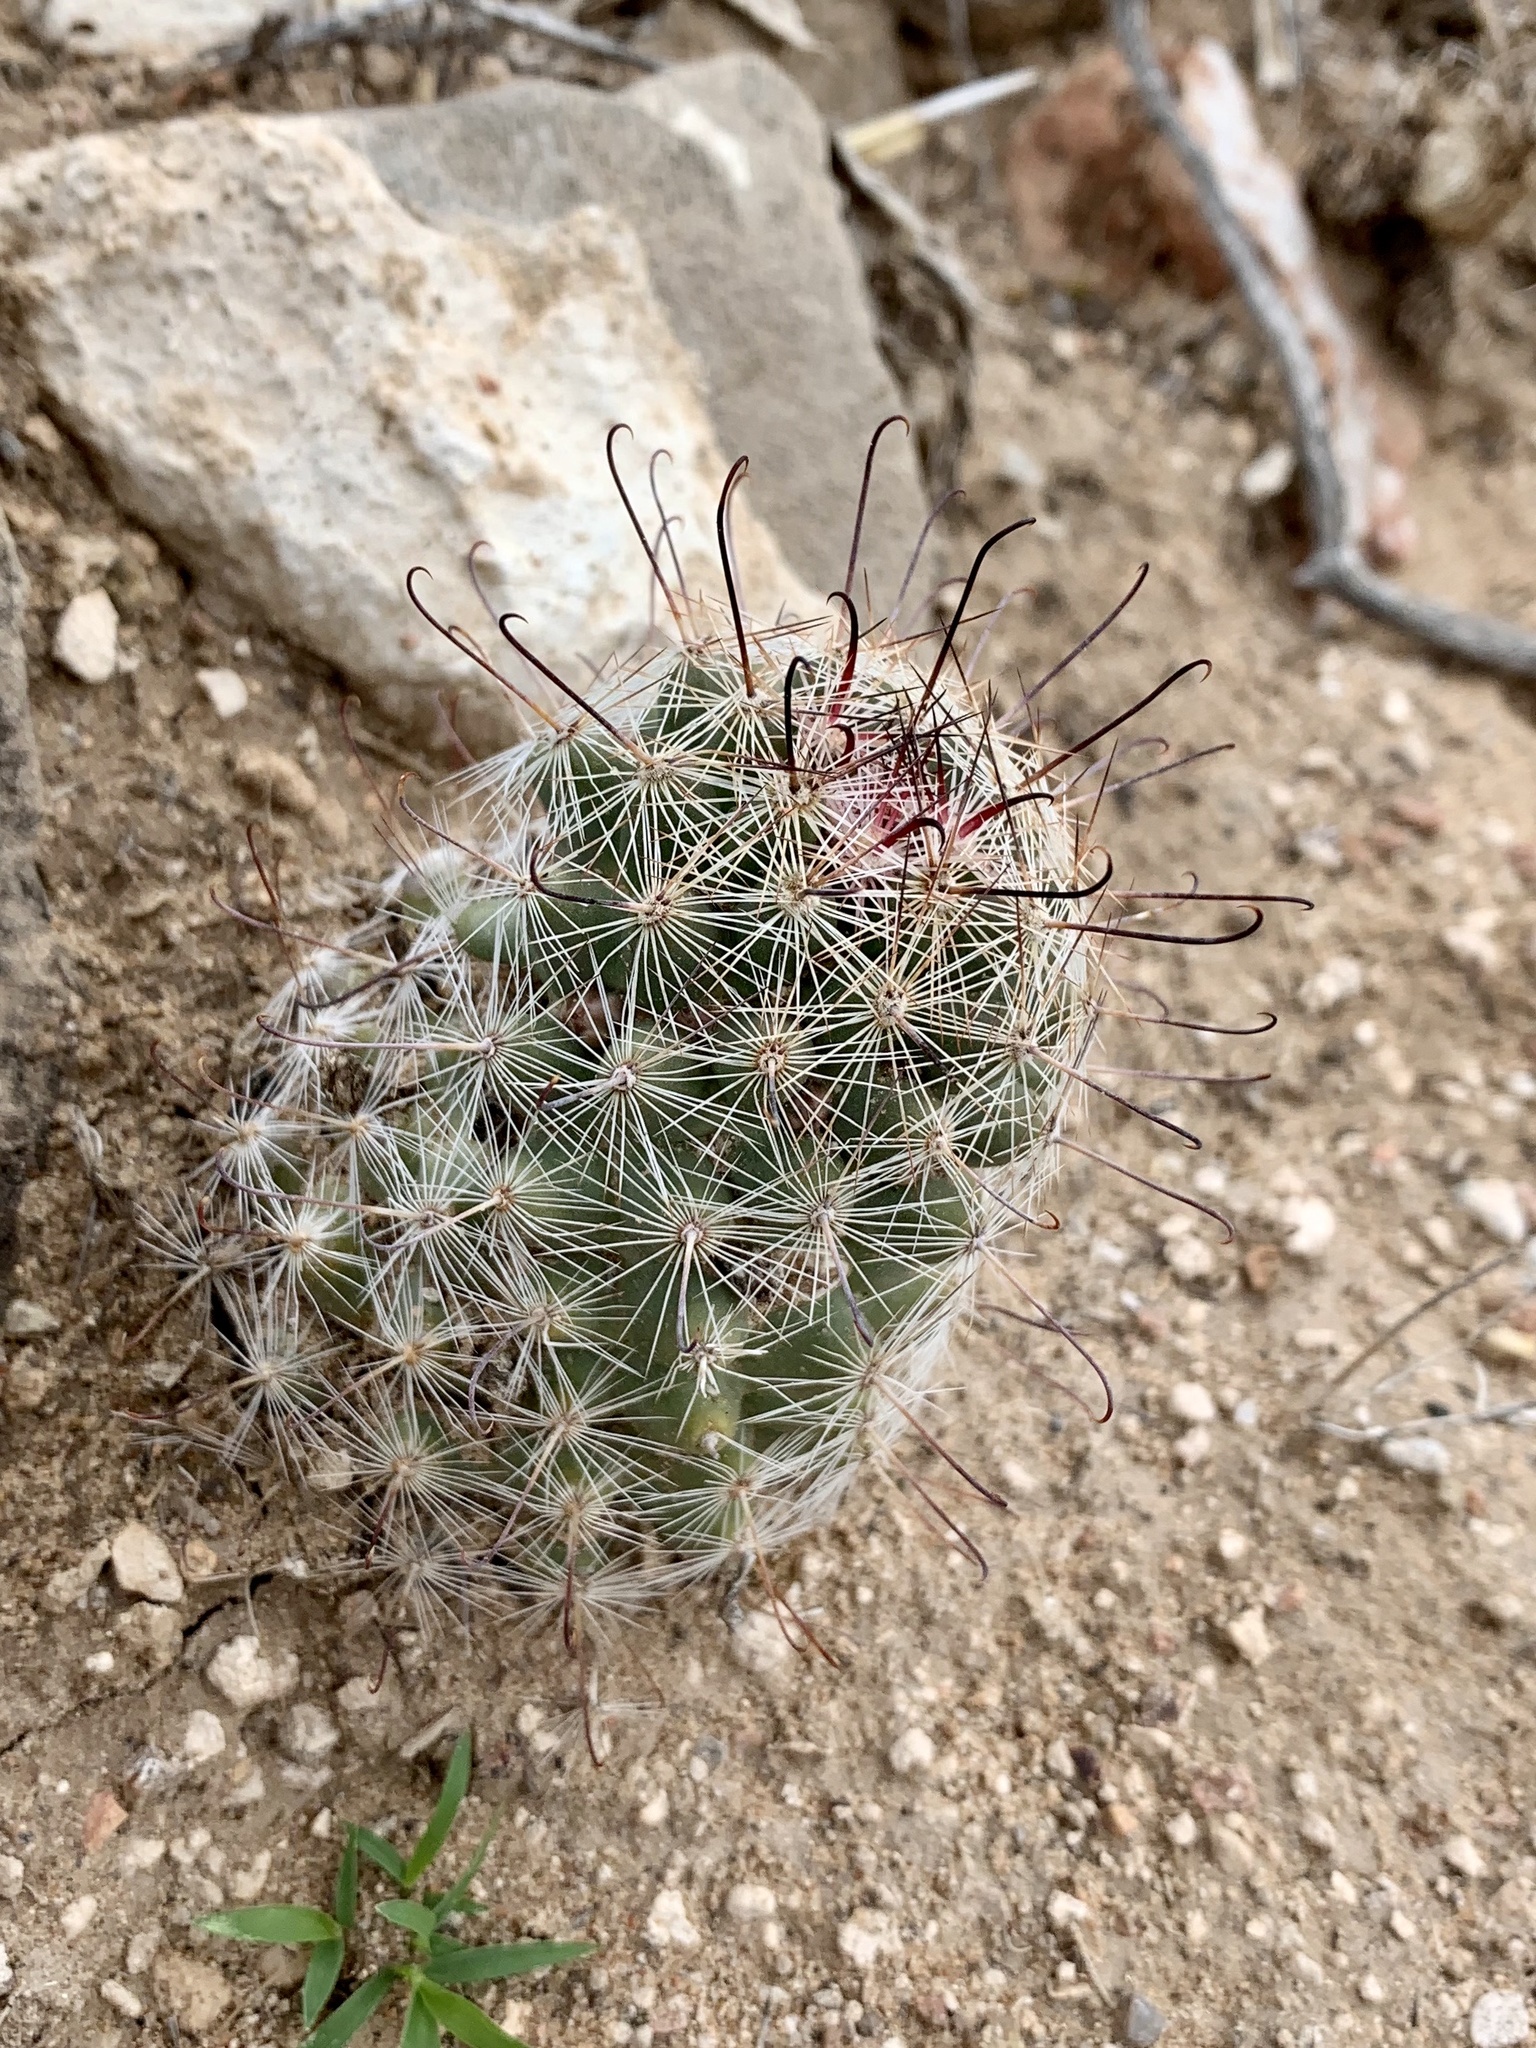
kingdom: Plantae
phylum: Tracheophyta
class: Magnoliopsida
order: Caryophyllales
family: Cactaceae
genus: Cochemiea
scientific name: Cochemiea grahamii
